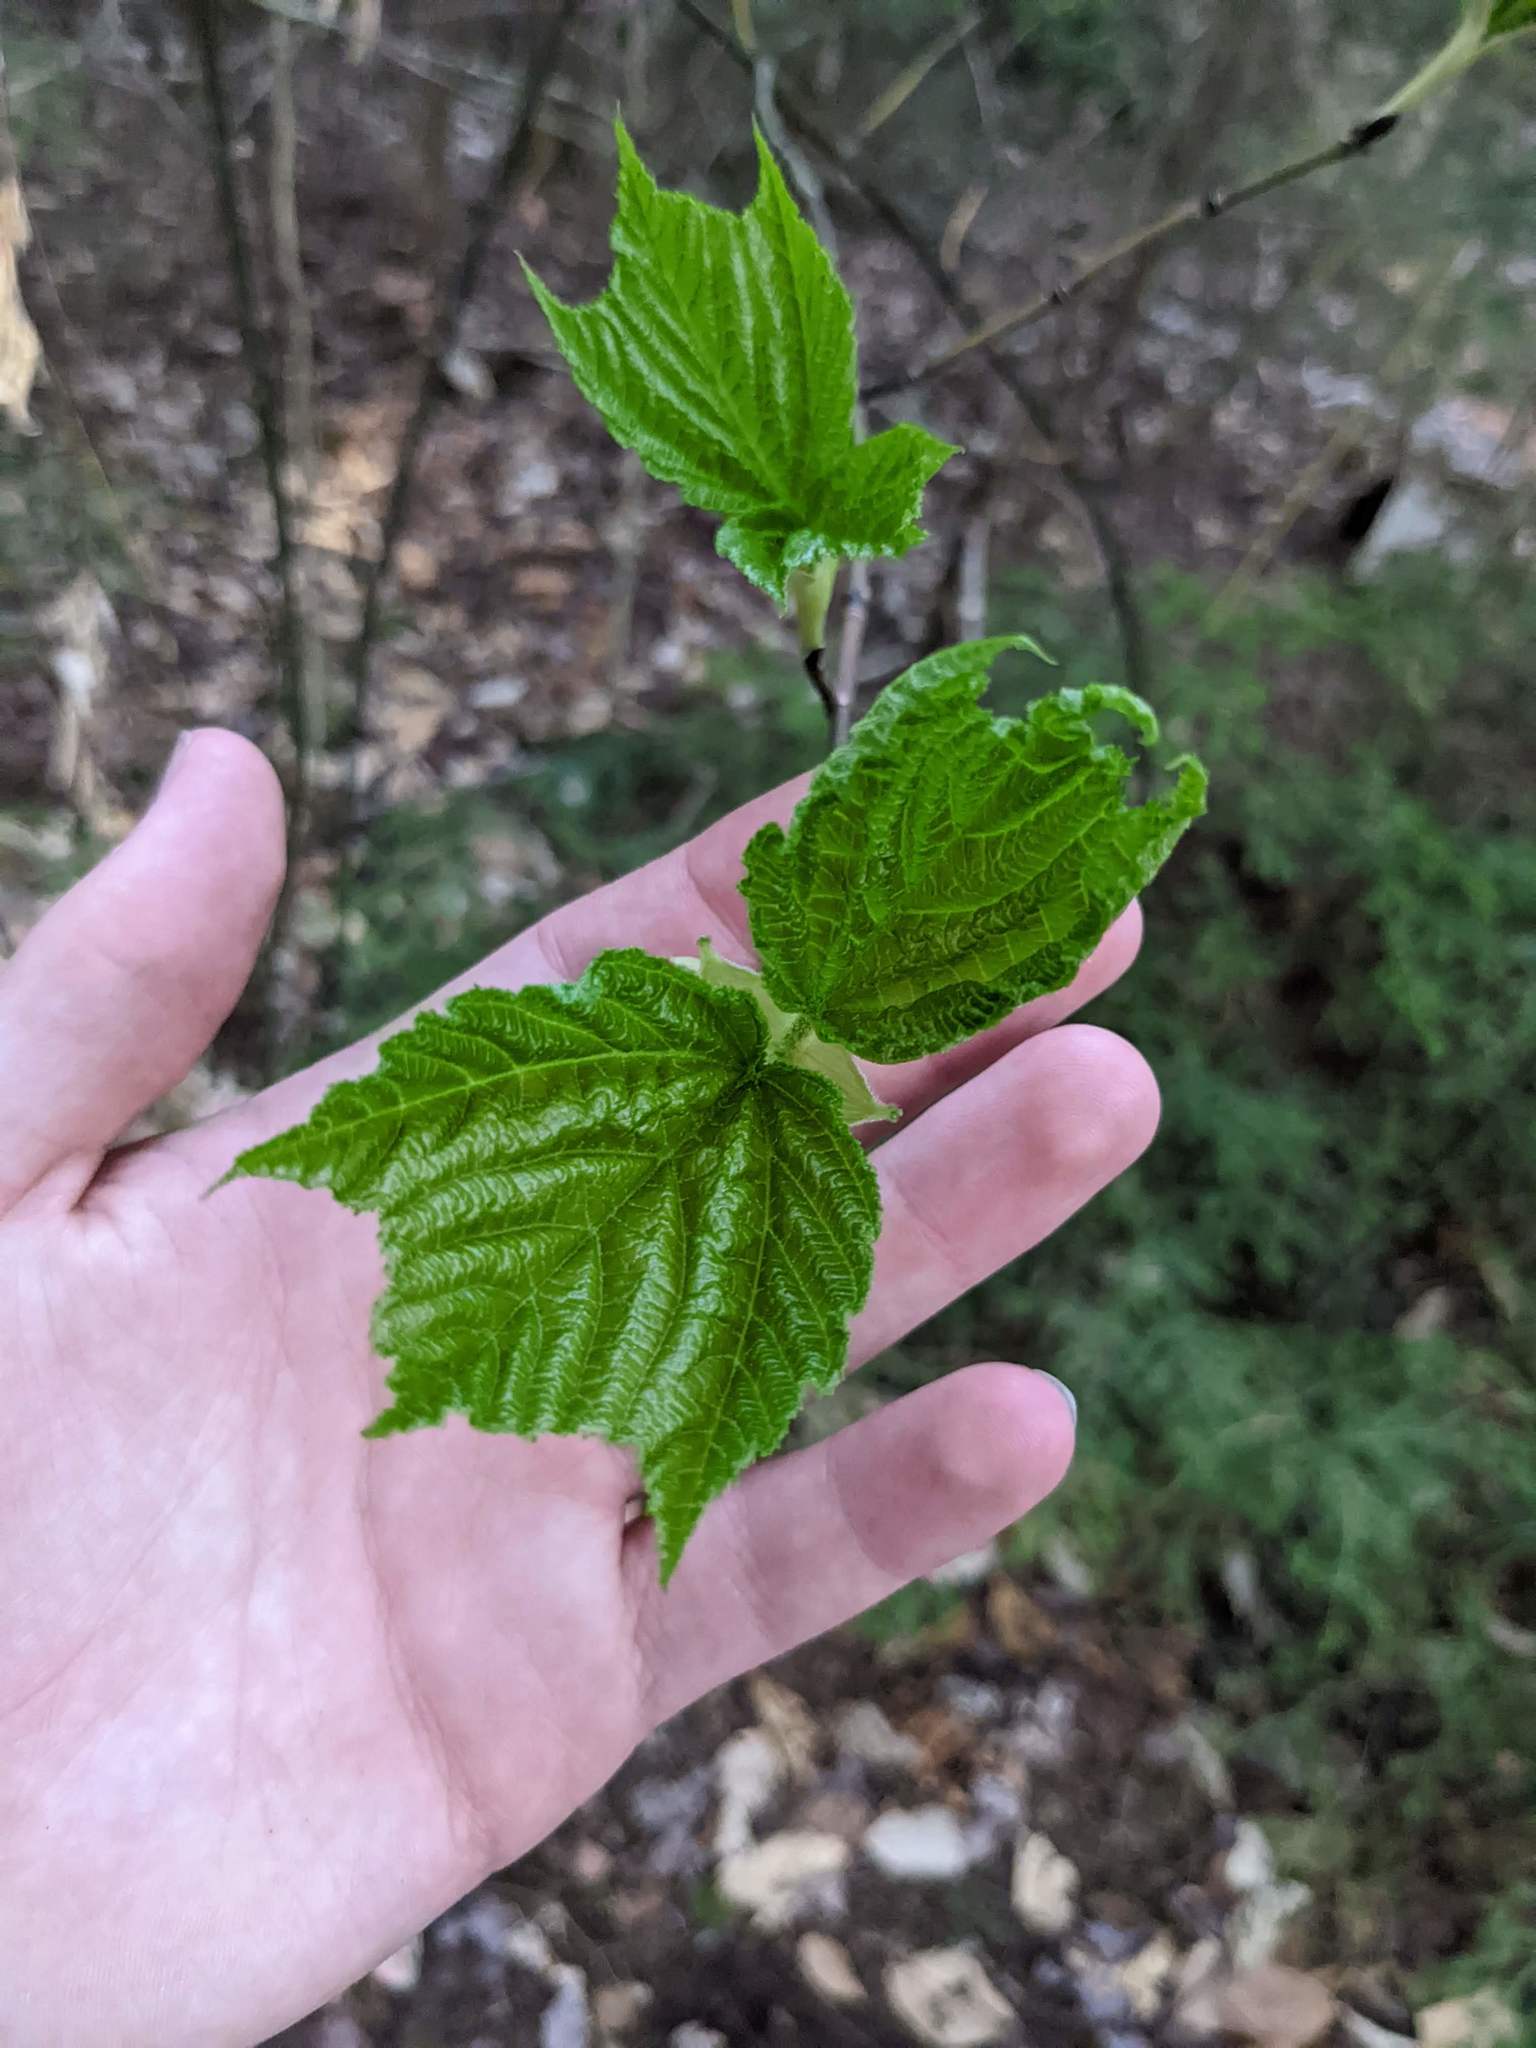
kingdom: Plantae
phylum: Tracheophyta
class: Magnoliopsida
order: Sapindales
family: Sapindaceae
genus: Acer
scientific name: Acer pensylvanicum
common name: Moosewood
